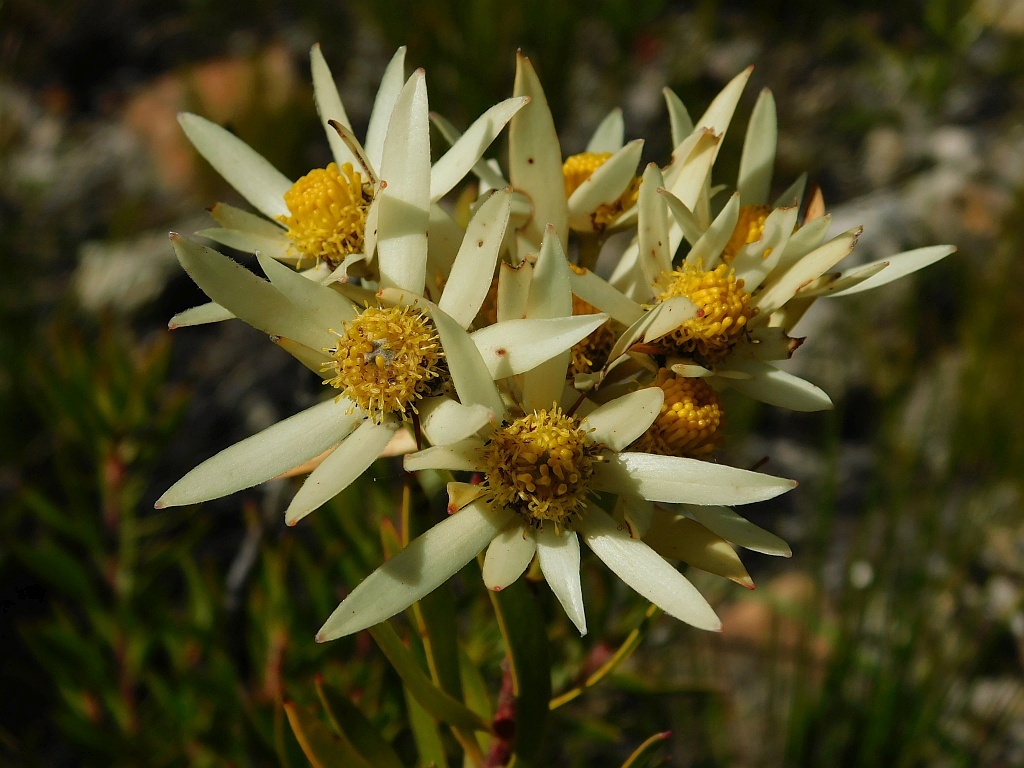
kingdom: Plantae
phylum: Tracheophyta
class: Magnoliopsida
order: Proteales
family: Proteaceae
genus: Leucadendron
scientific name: Leucadendron spissifolium
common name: Spear-leaf conebush
